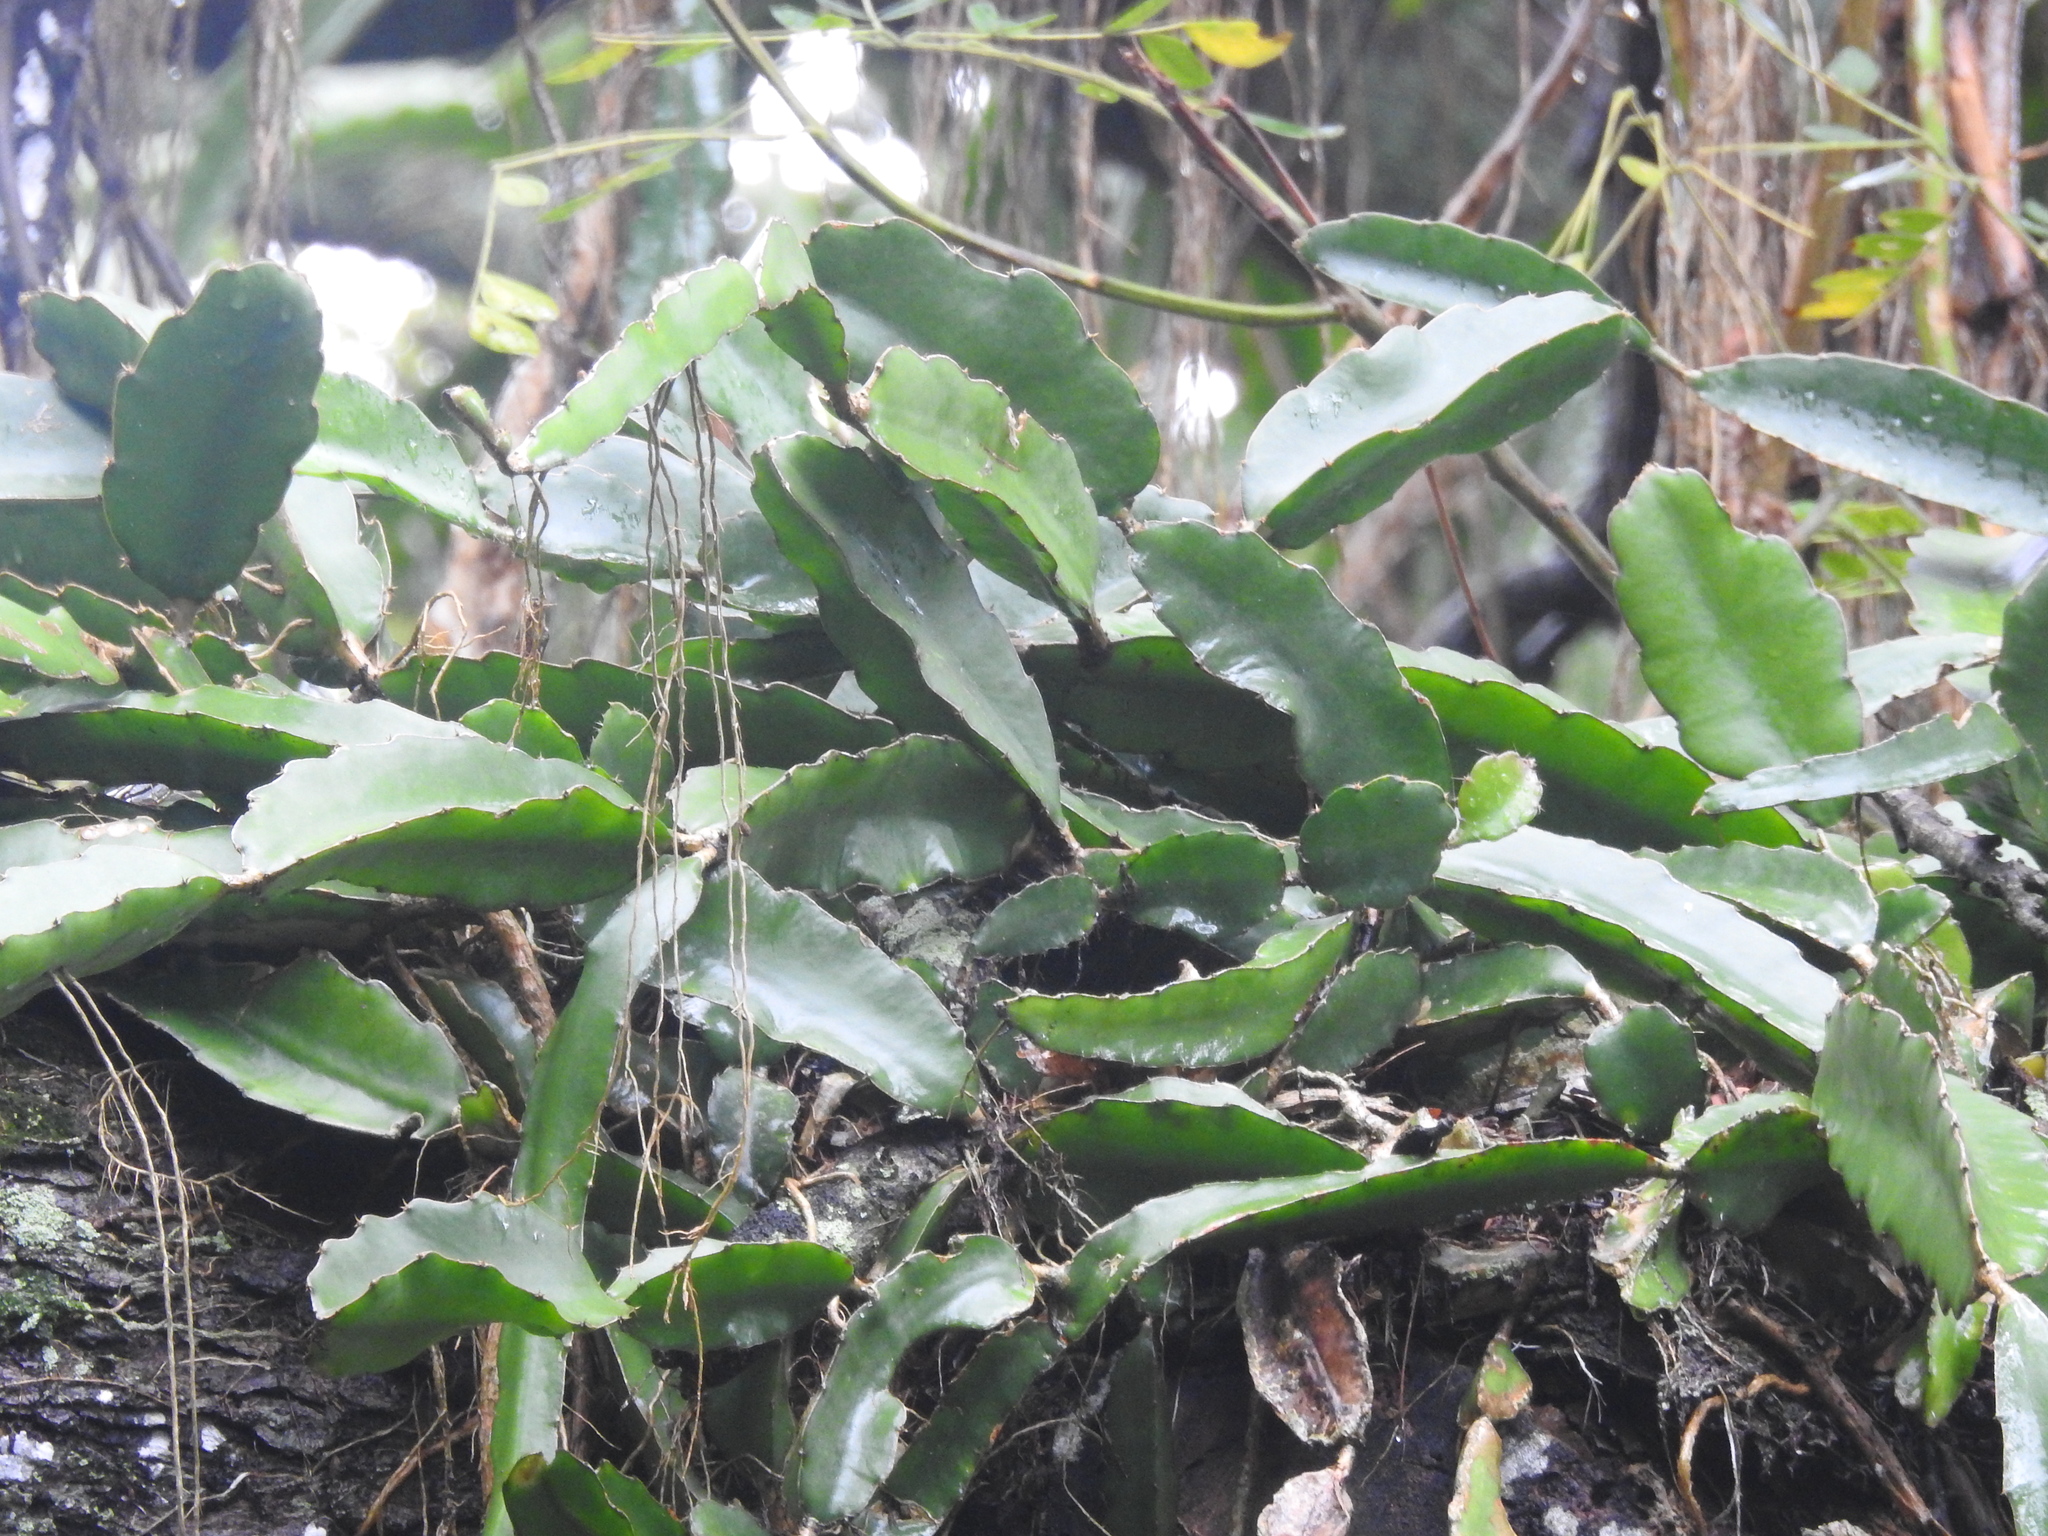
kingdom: Plantae
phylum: Tracheophyta
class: Magnoliopsida
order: Caryophyllales
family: Cactaceae
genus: Selenicereus
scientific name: Selenicereus undatus
